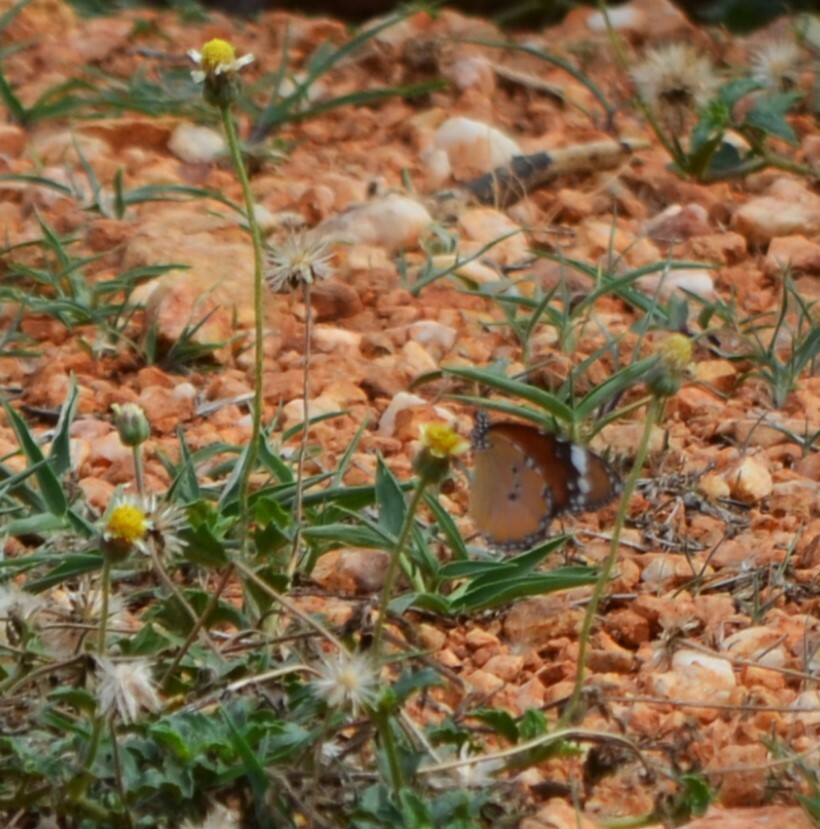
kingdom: Animalia
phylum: Arthropoda
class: Insecta
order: Lepidoptera
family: Nymphalidae
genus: Danaus
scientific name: Danaus chrysippus
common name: Plain tiger
